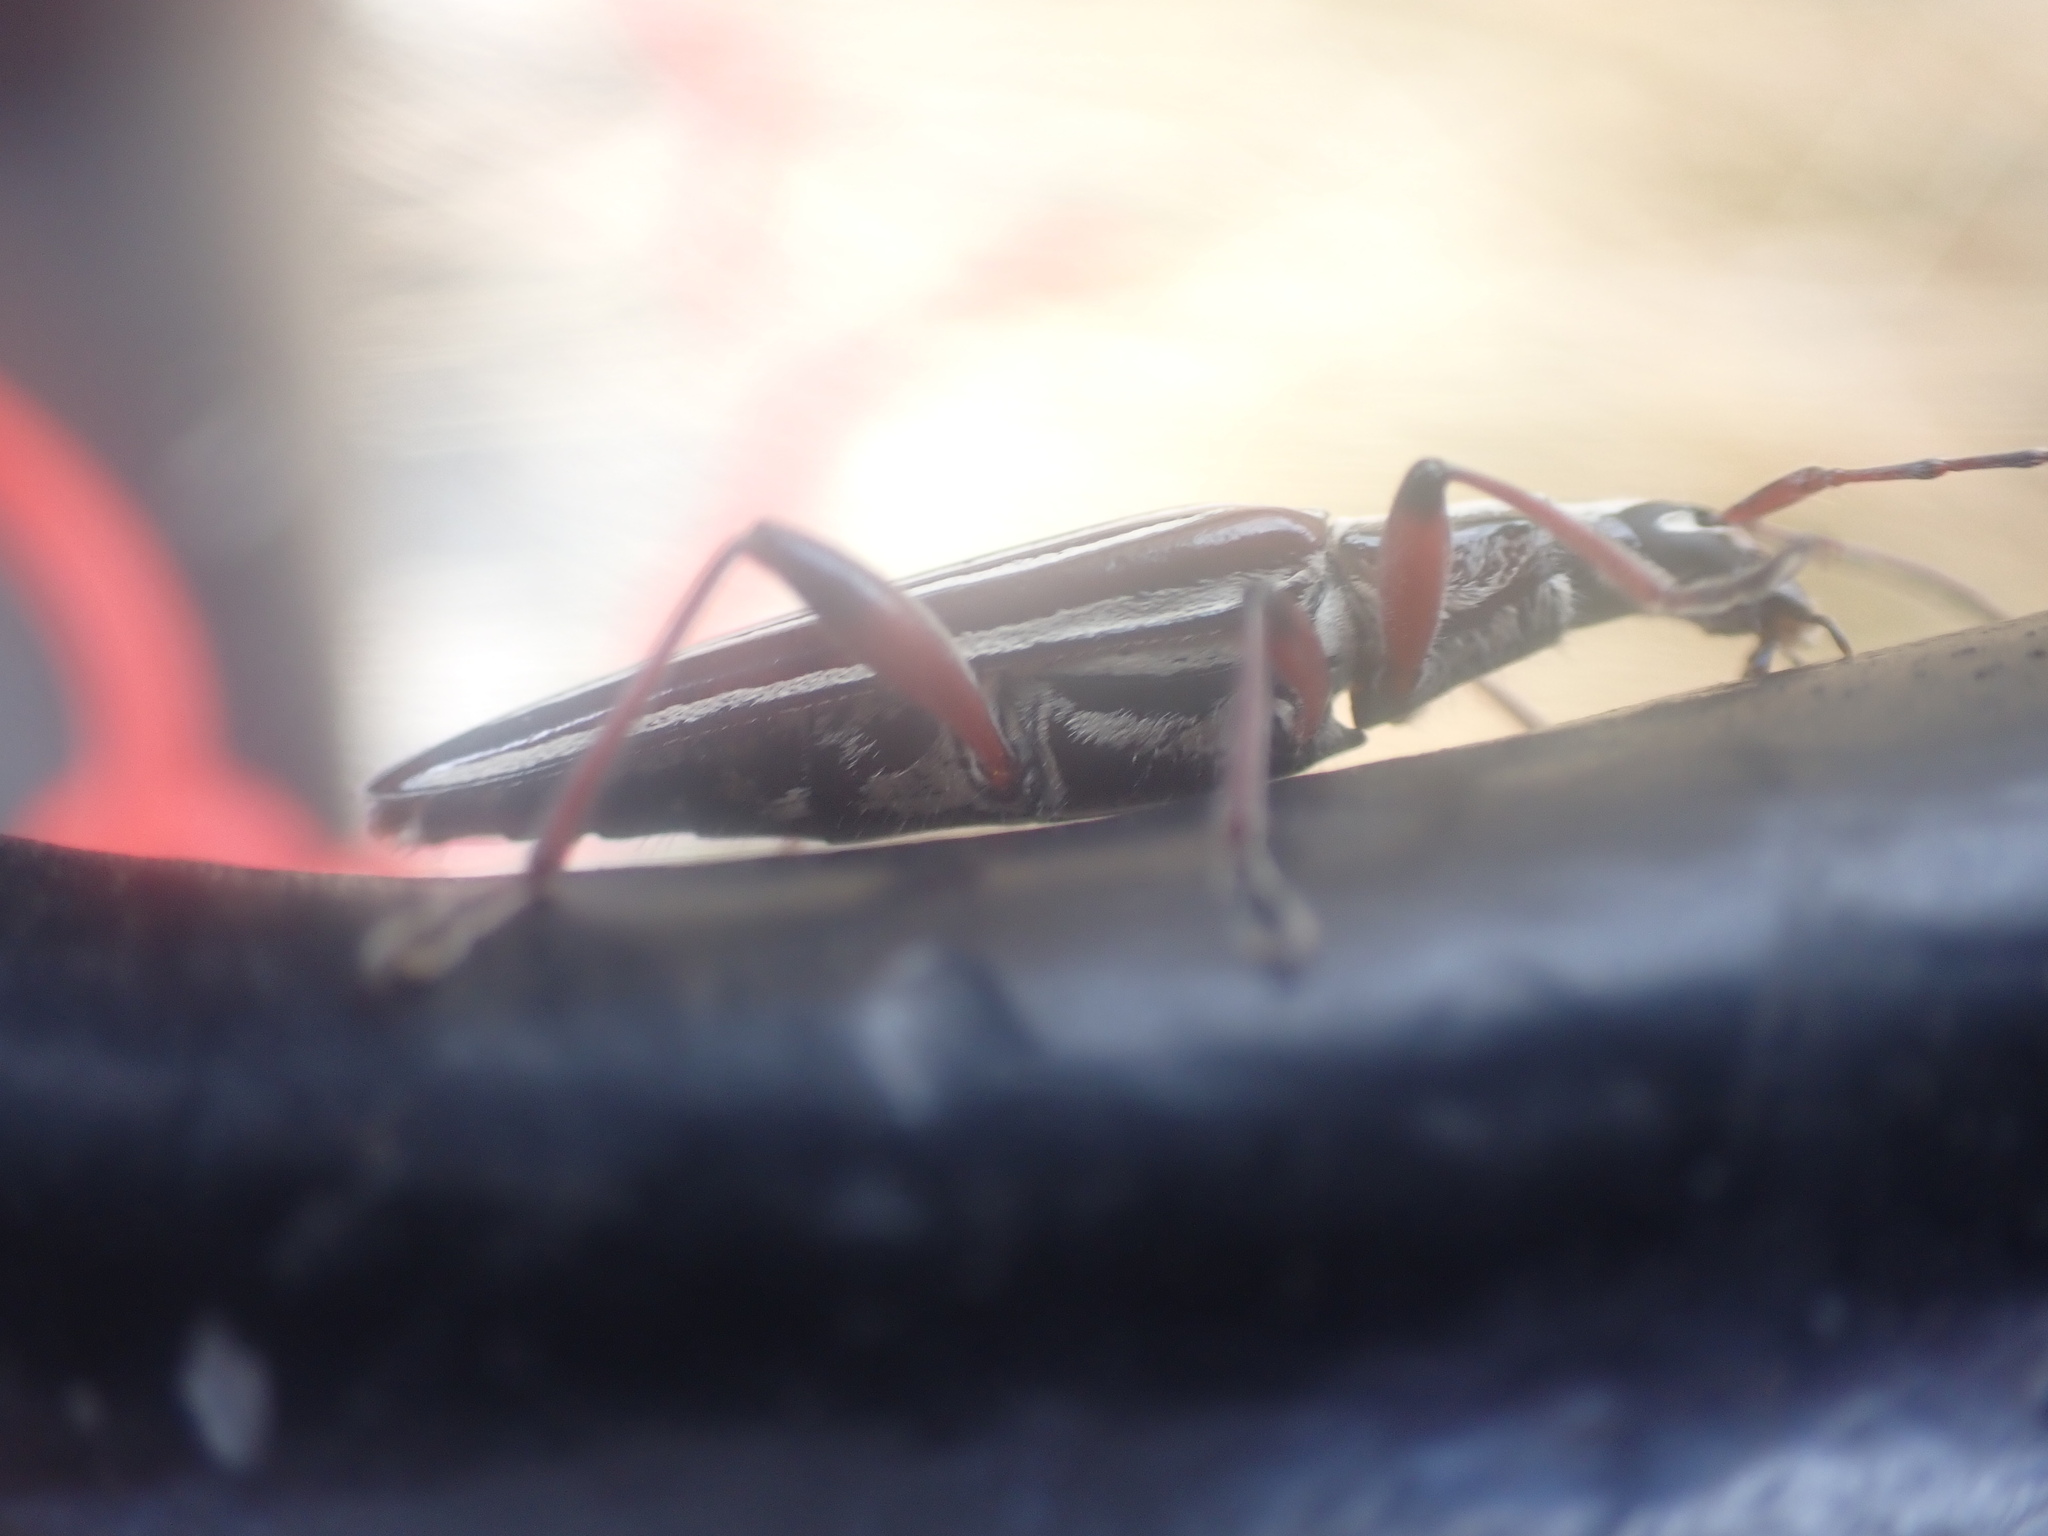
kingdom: Animalia
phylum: Arthropoda
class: Insecta
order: Coleoptera
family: Cerambycidae
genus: Coptomma
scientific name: Coptomma lineatum
